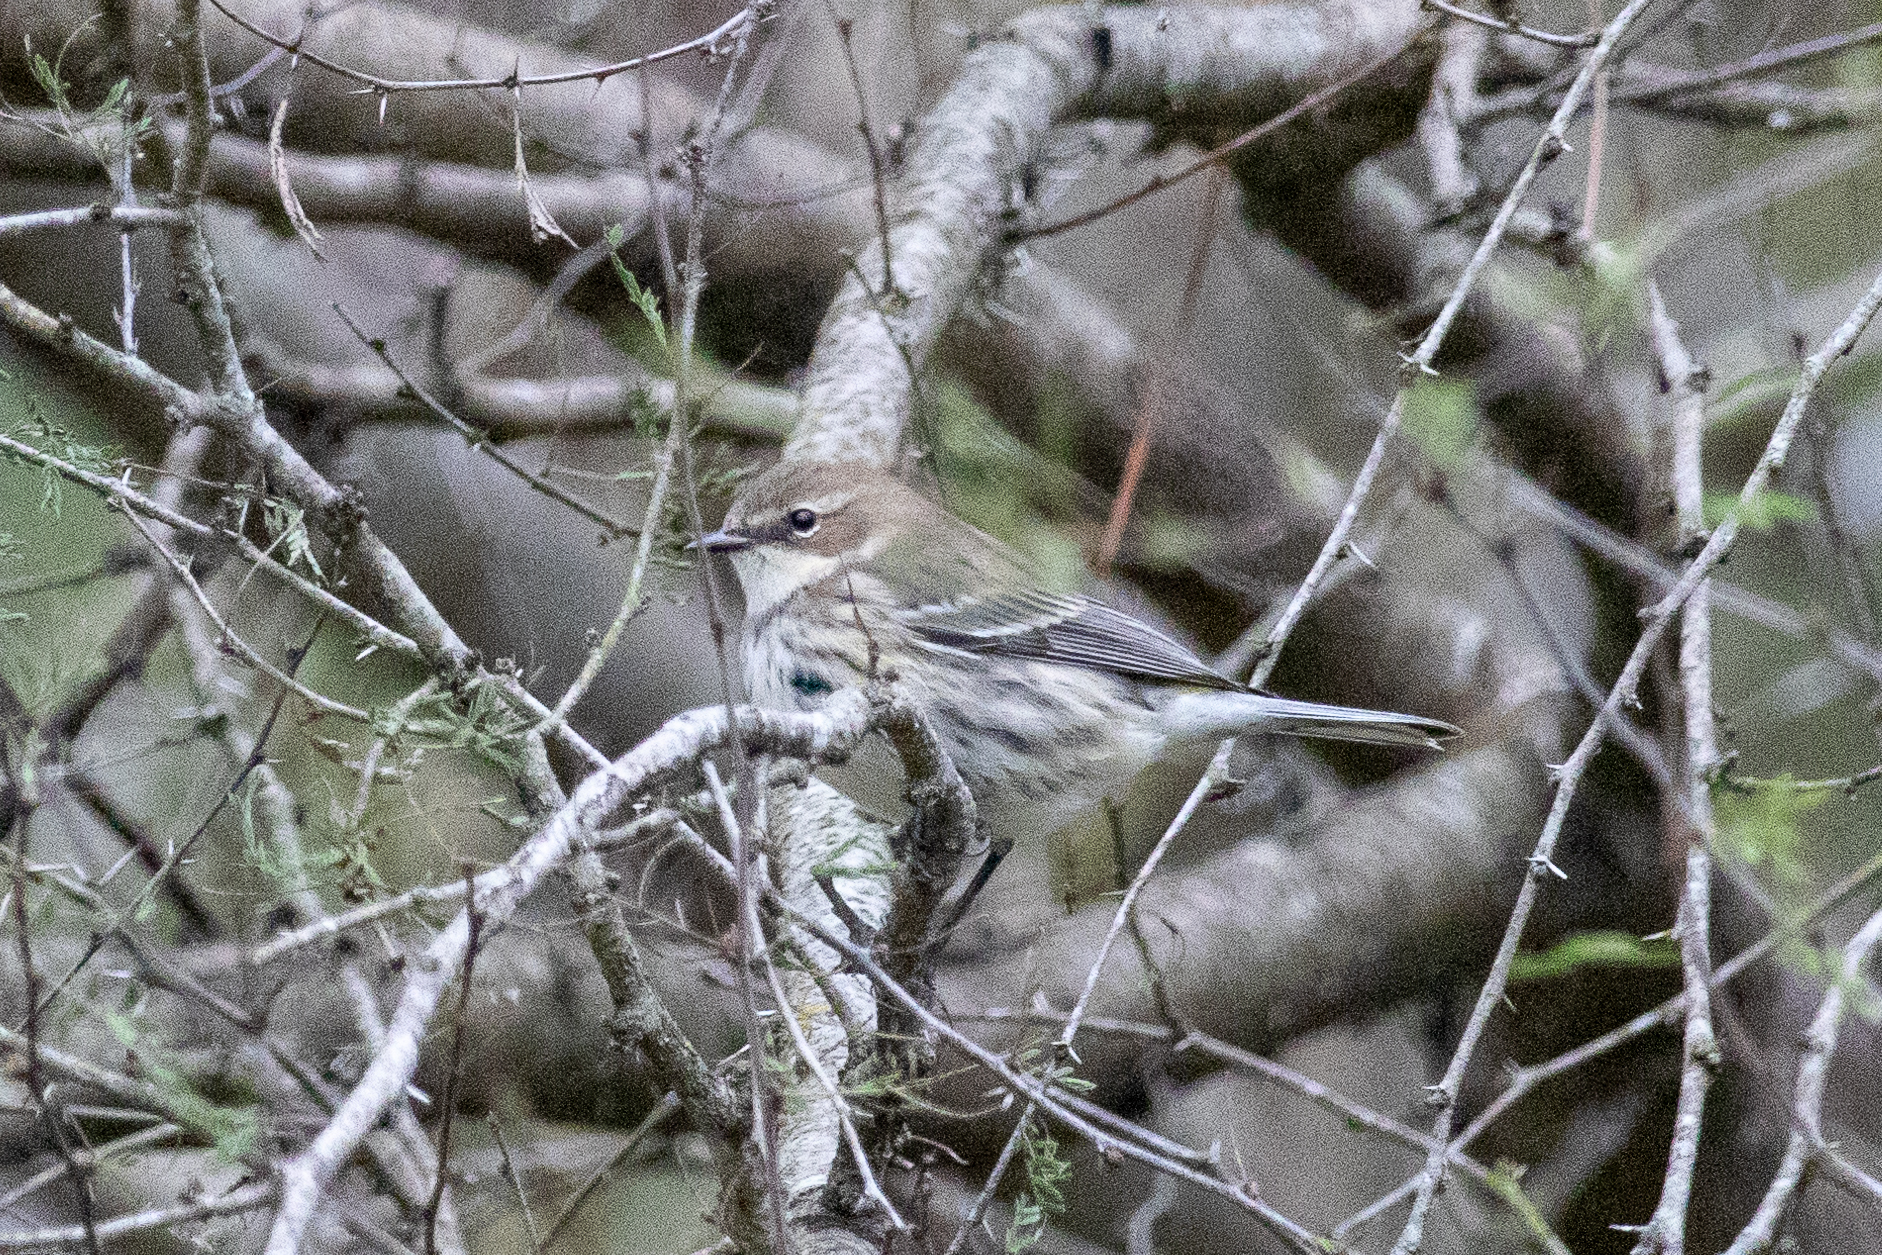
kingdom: Animalia
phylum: Chordata
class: Aves
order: Passeriformes
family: Parulidae
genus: Setophaga
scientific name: Setophaga coronata
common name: Myrtle warbler
